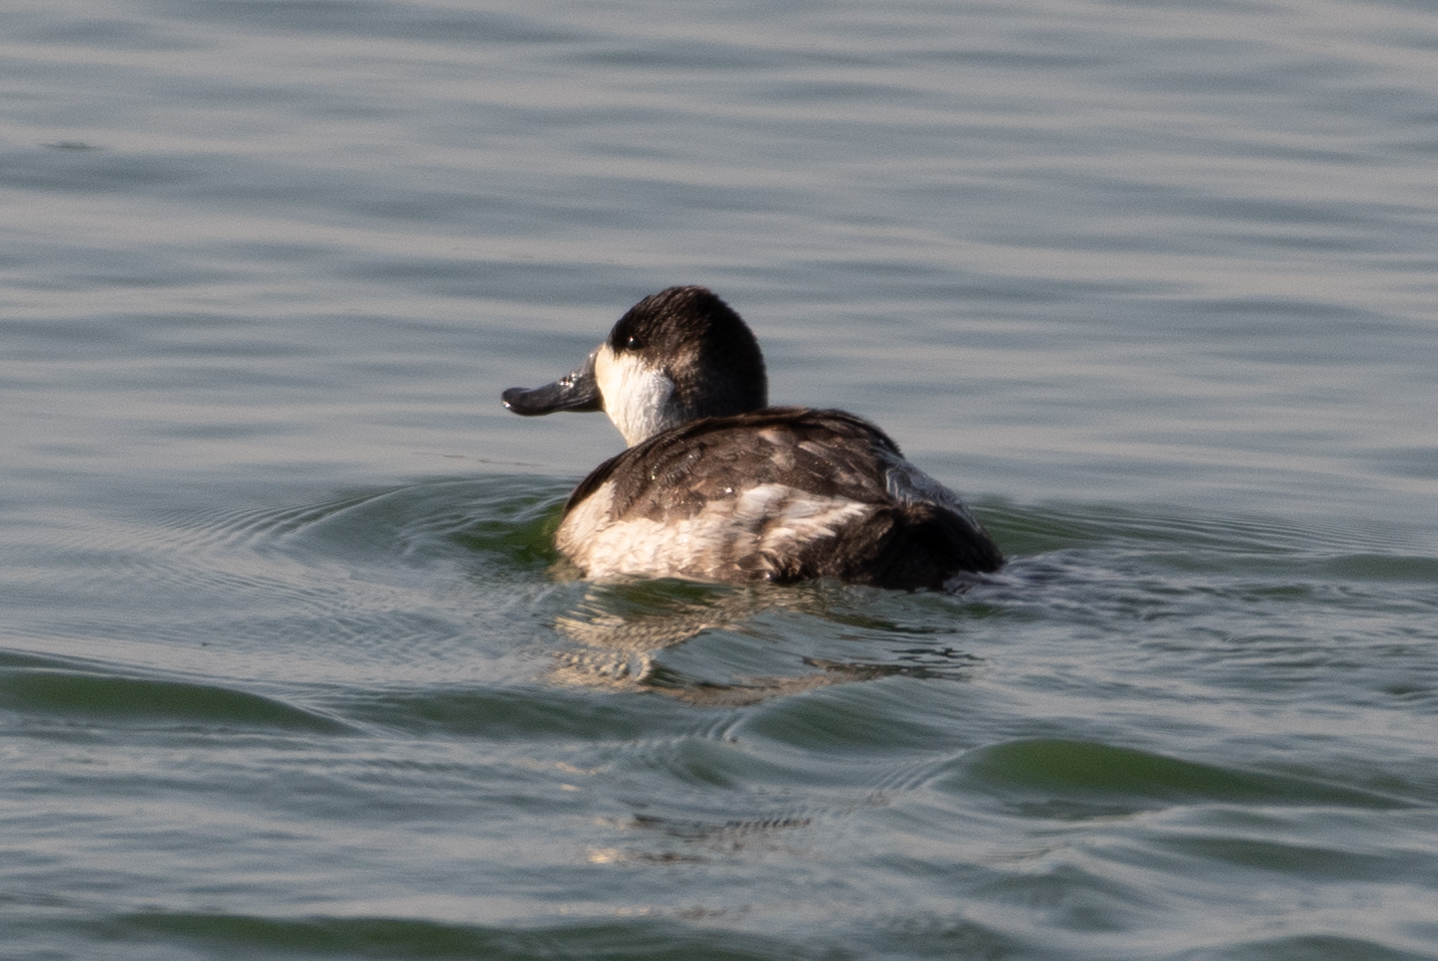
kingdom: Animalia
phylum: Chordata
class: Aves
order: Anseriformes
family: Anatidae
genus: Oxyura
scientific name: Oxyura jamaicensis
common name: Ruddy duck
